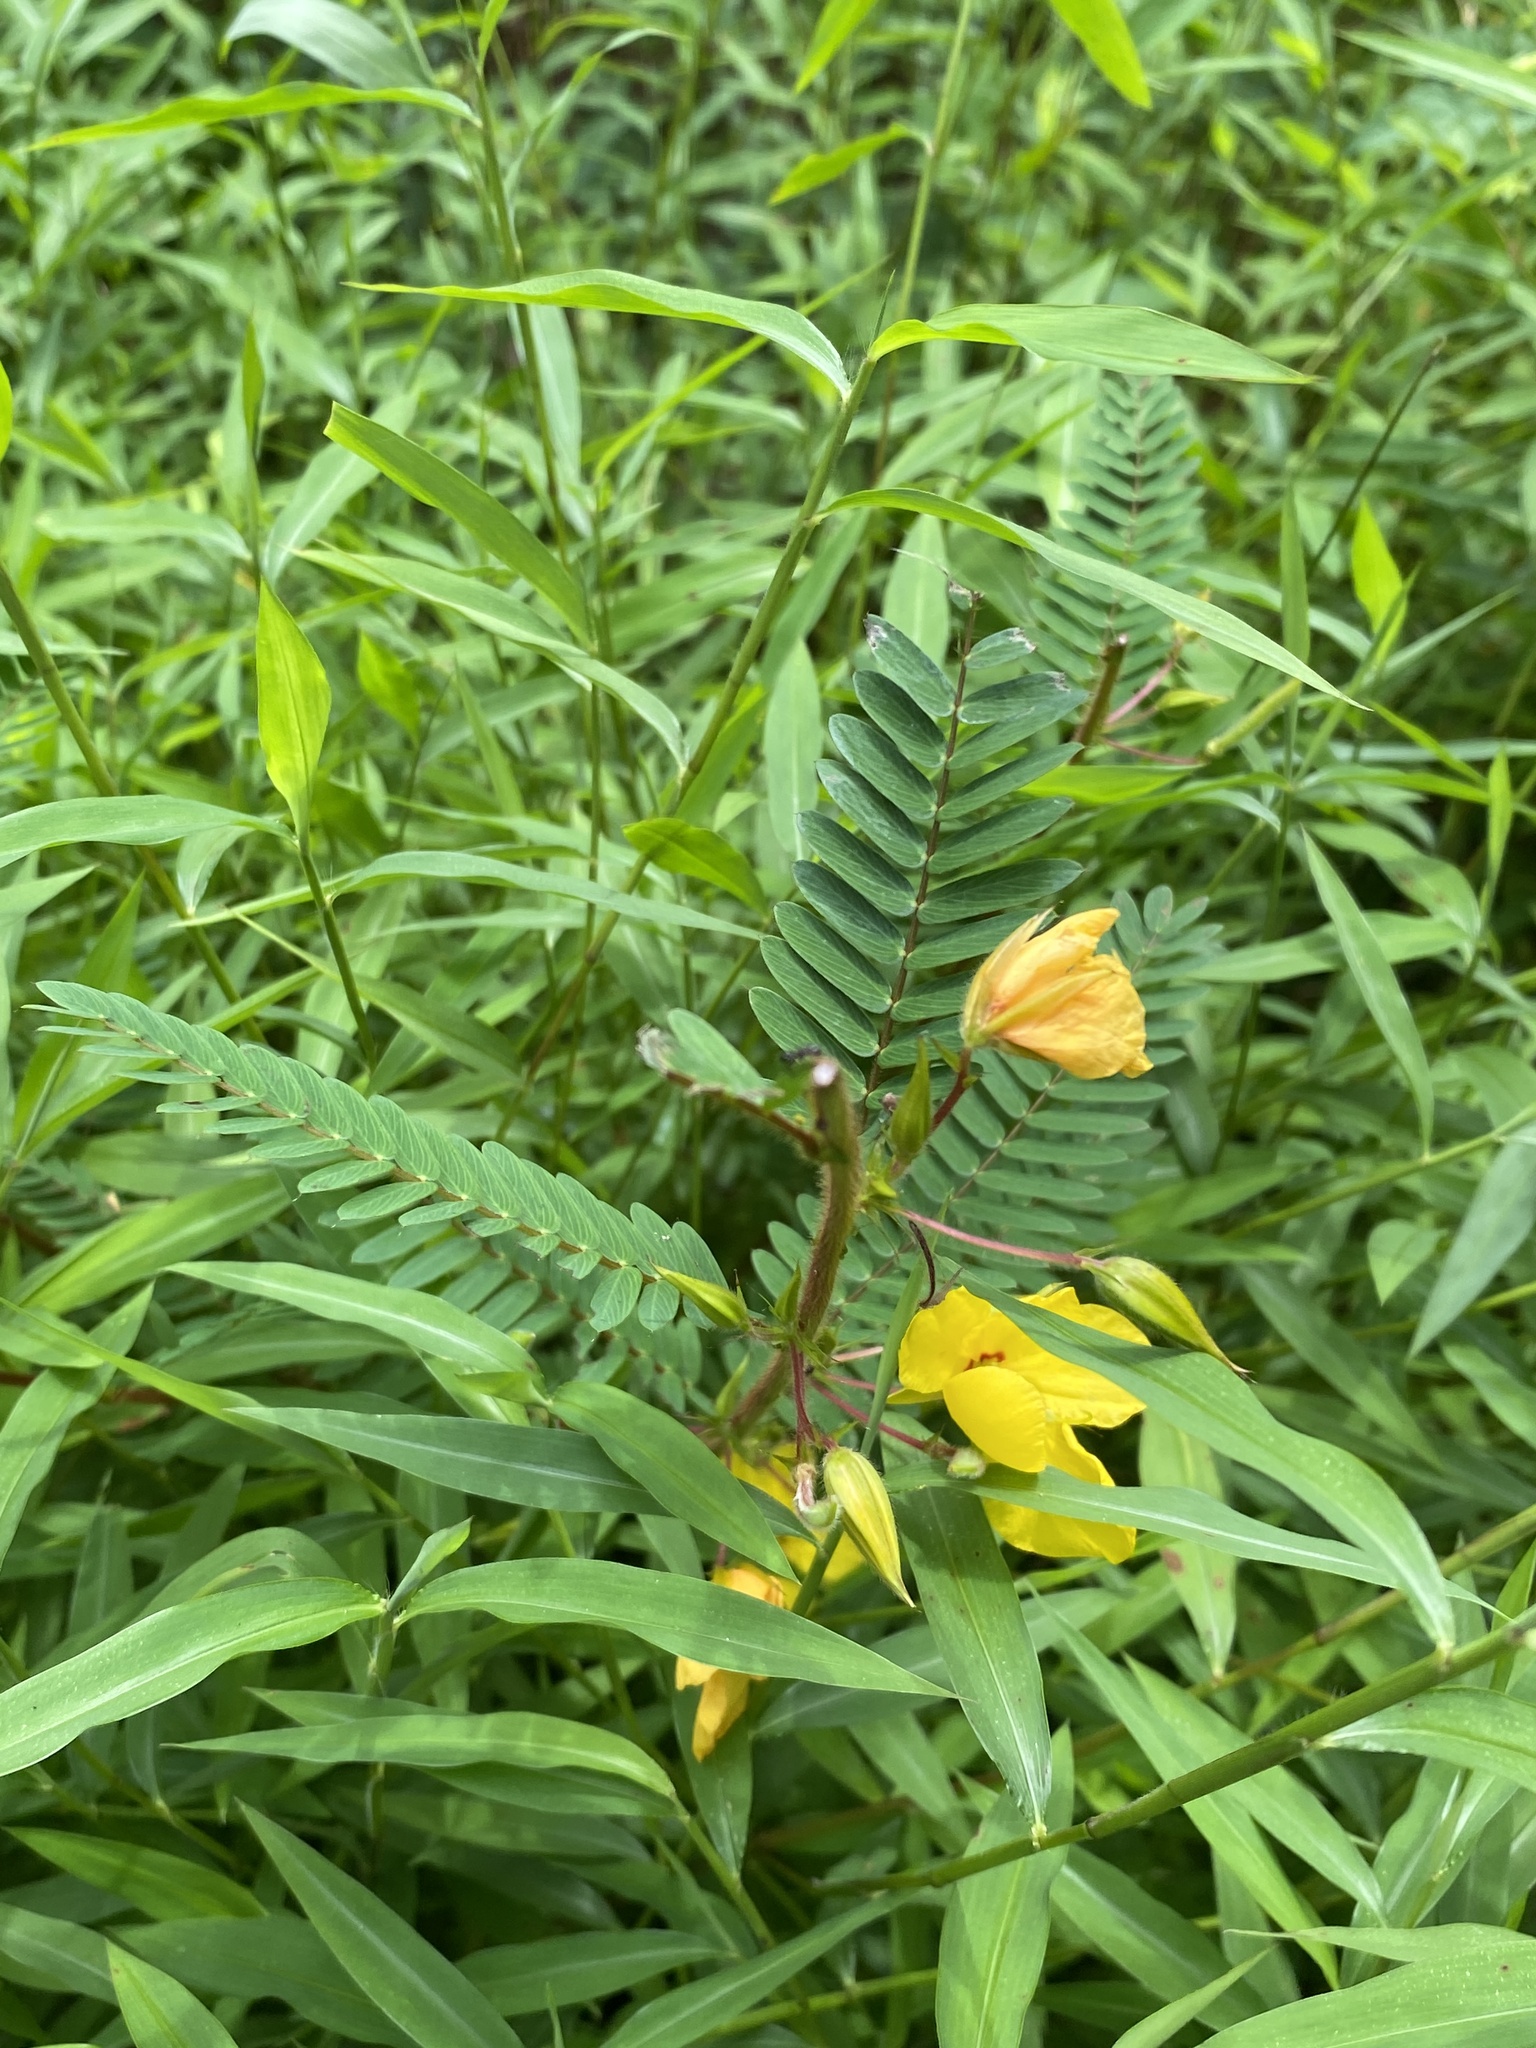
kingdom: Plantae
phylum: Tracheophyta
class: Magnoliopsida
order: Fabales
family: Fabaceae
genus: Chamaecrista
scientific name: Chamaecrista fasciculata
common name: Golden cassia
